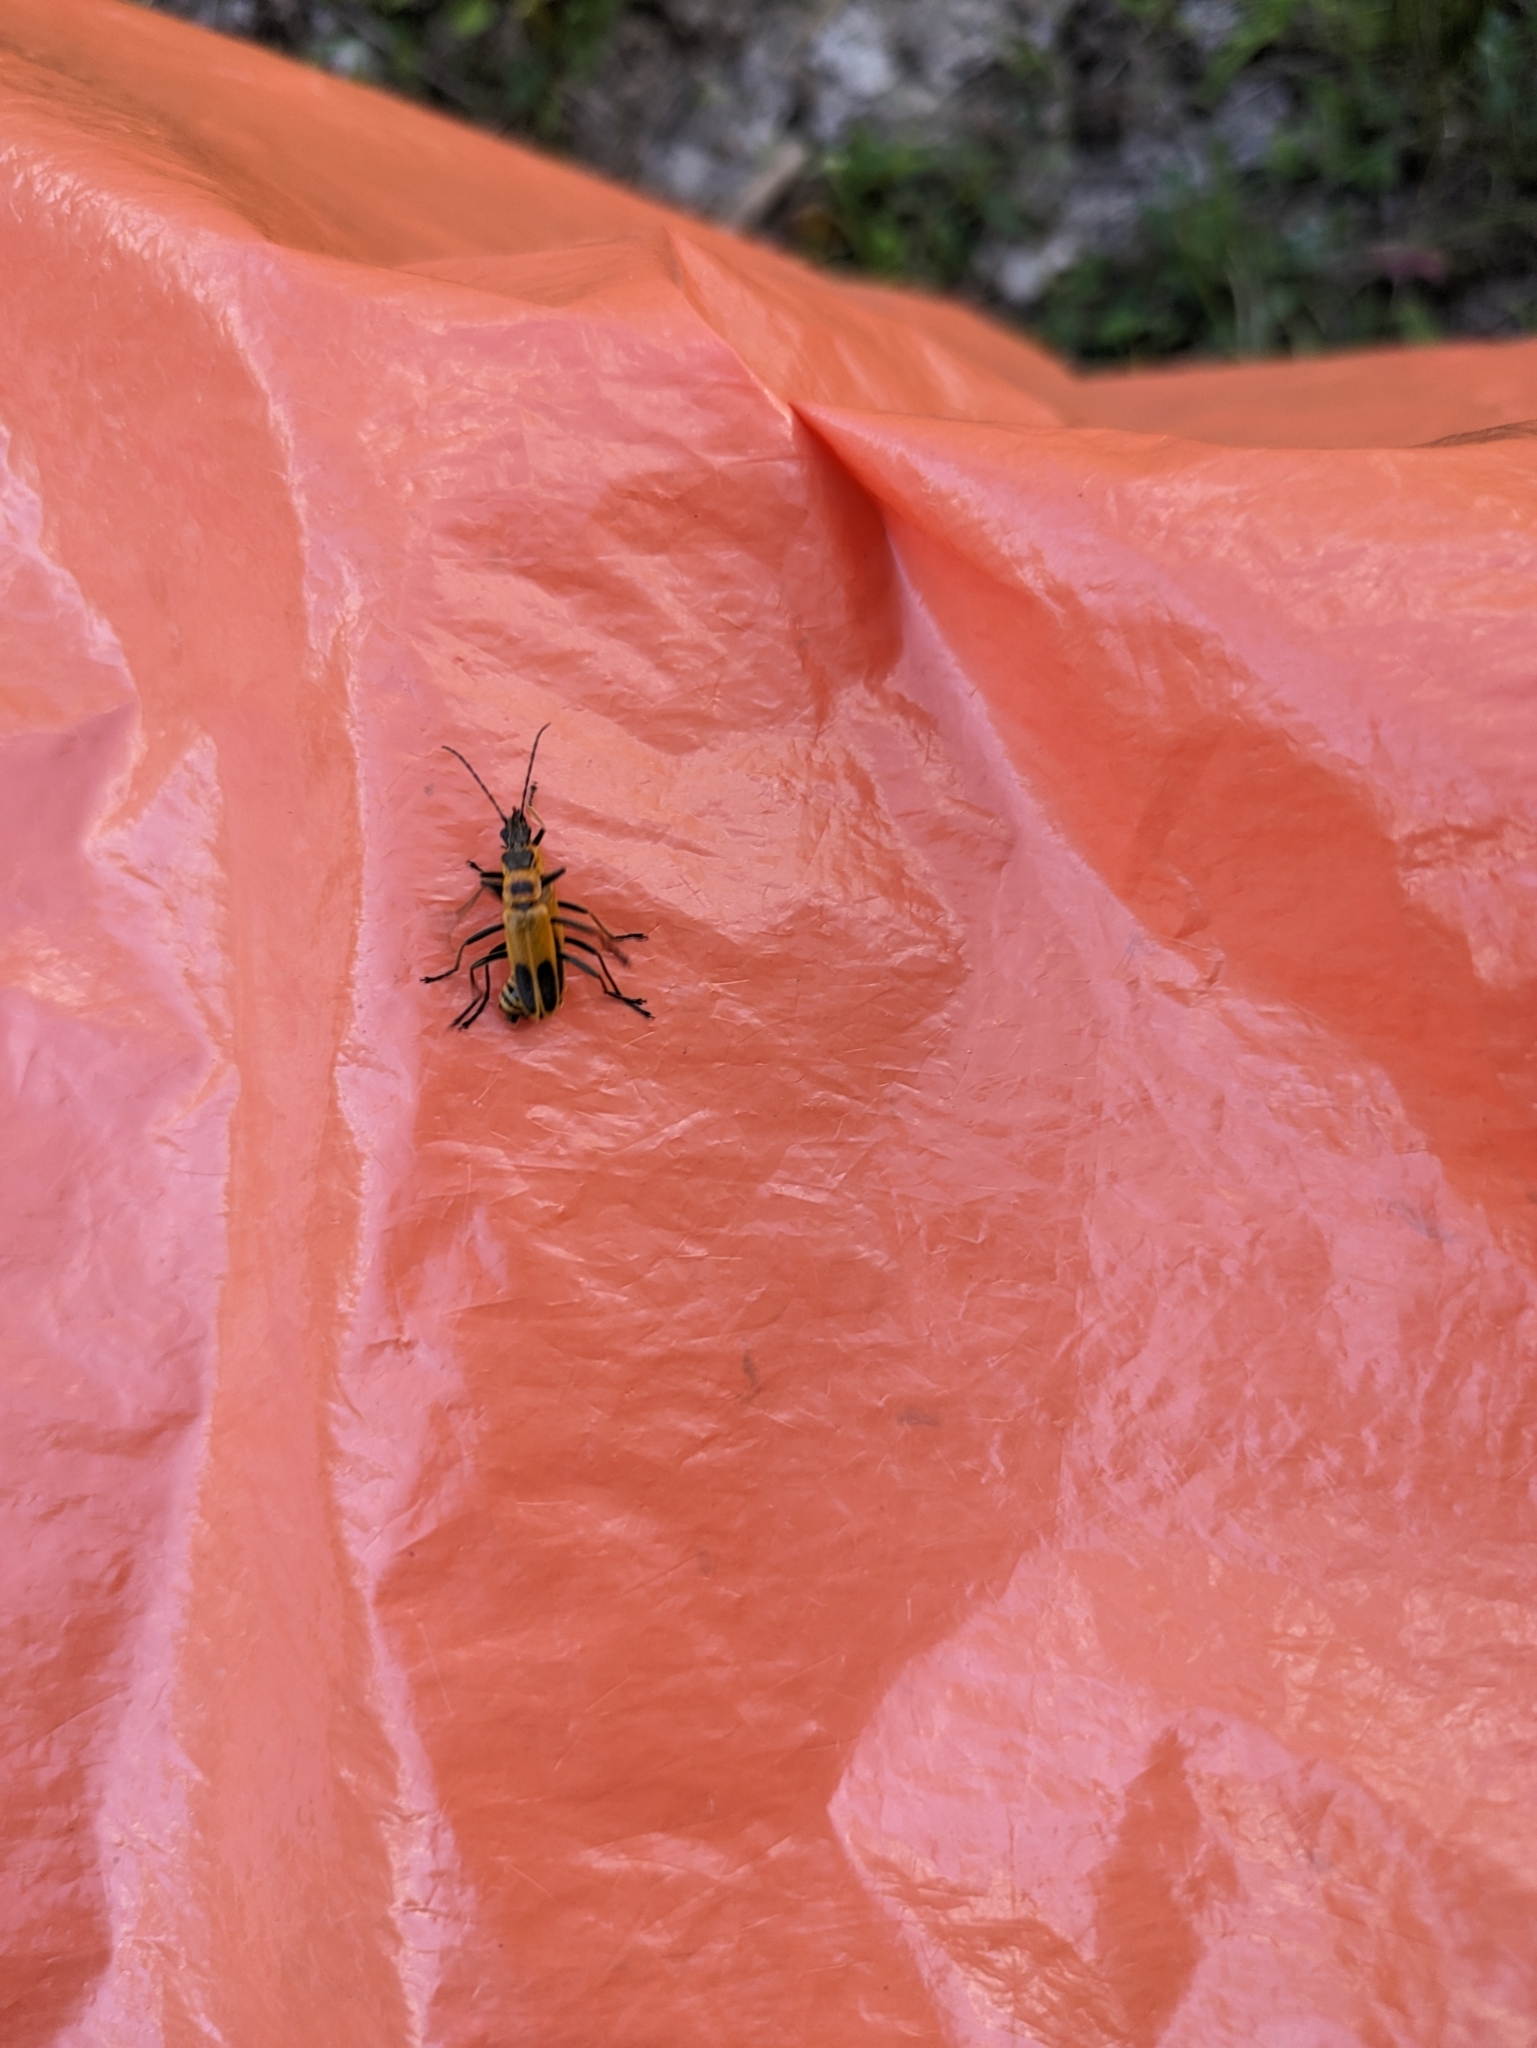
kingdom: Animalia
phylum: Arthropoda
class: Insecta
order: Coleoptera
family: Cantharidae
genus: Chauliognathus
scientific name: Chauliognathus pensylvanicus
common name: Goldenrod soldier beetle
